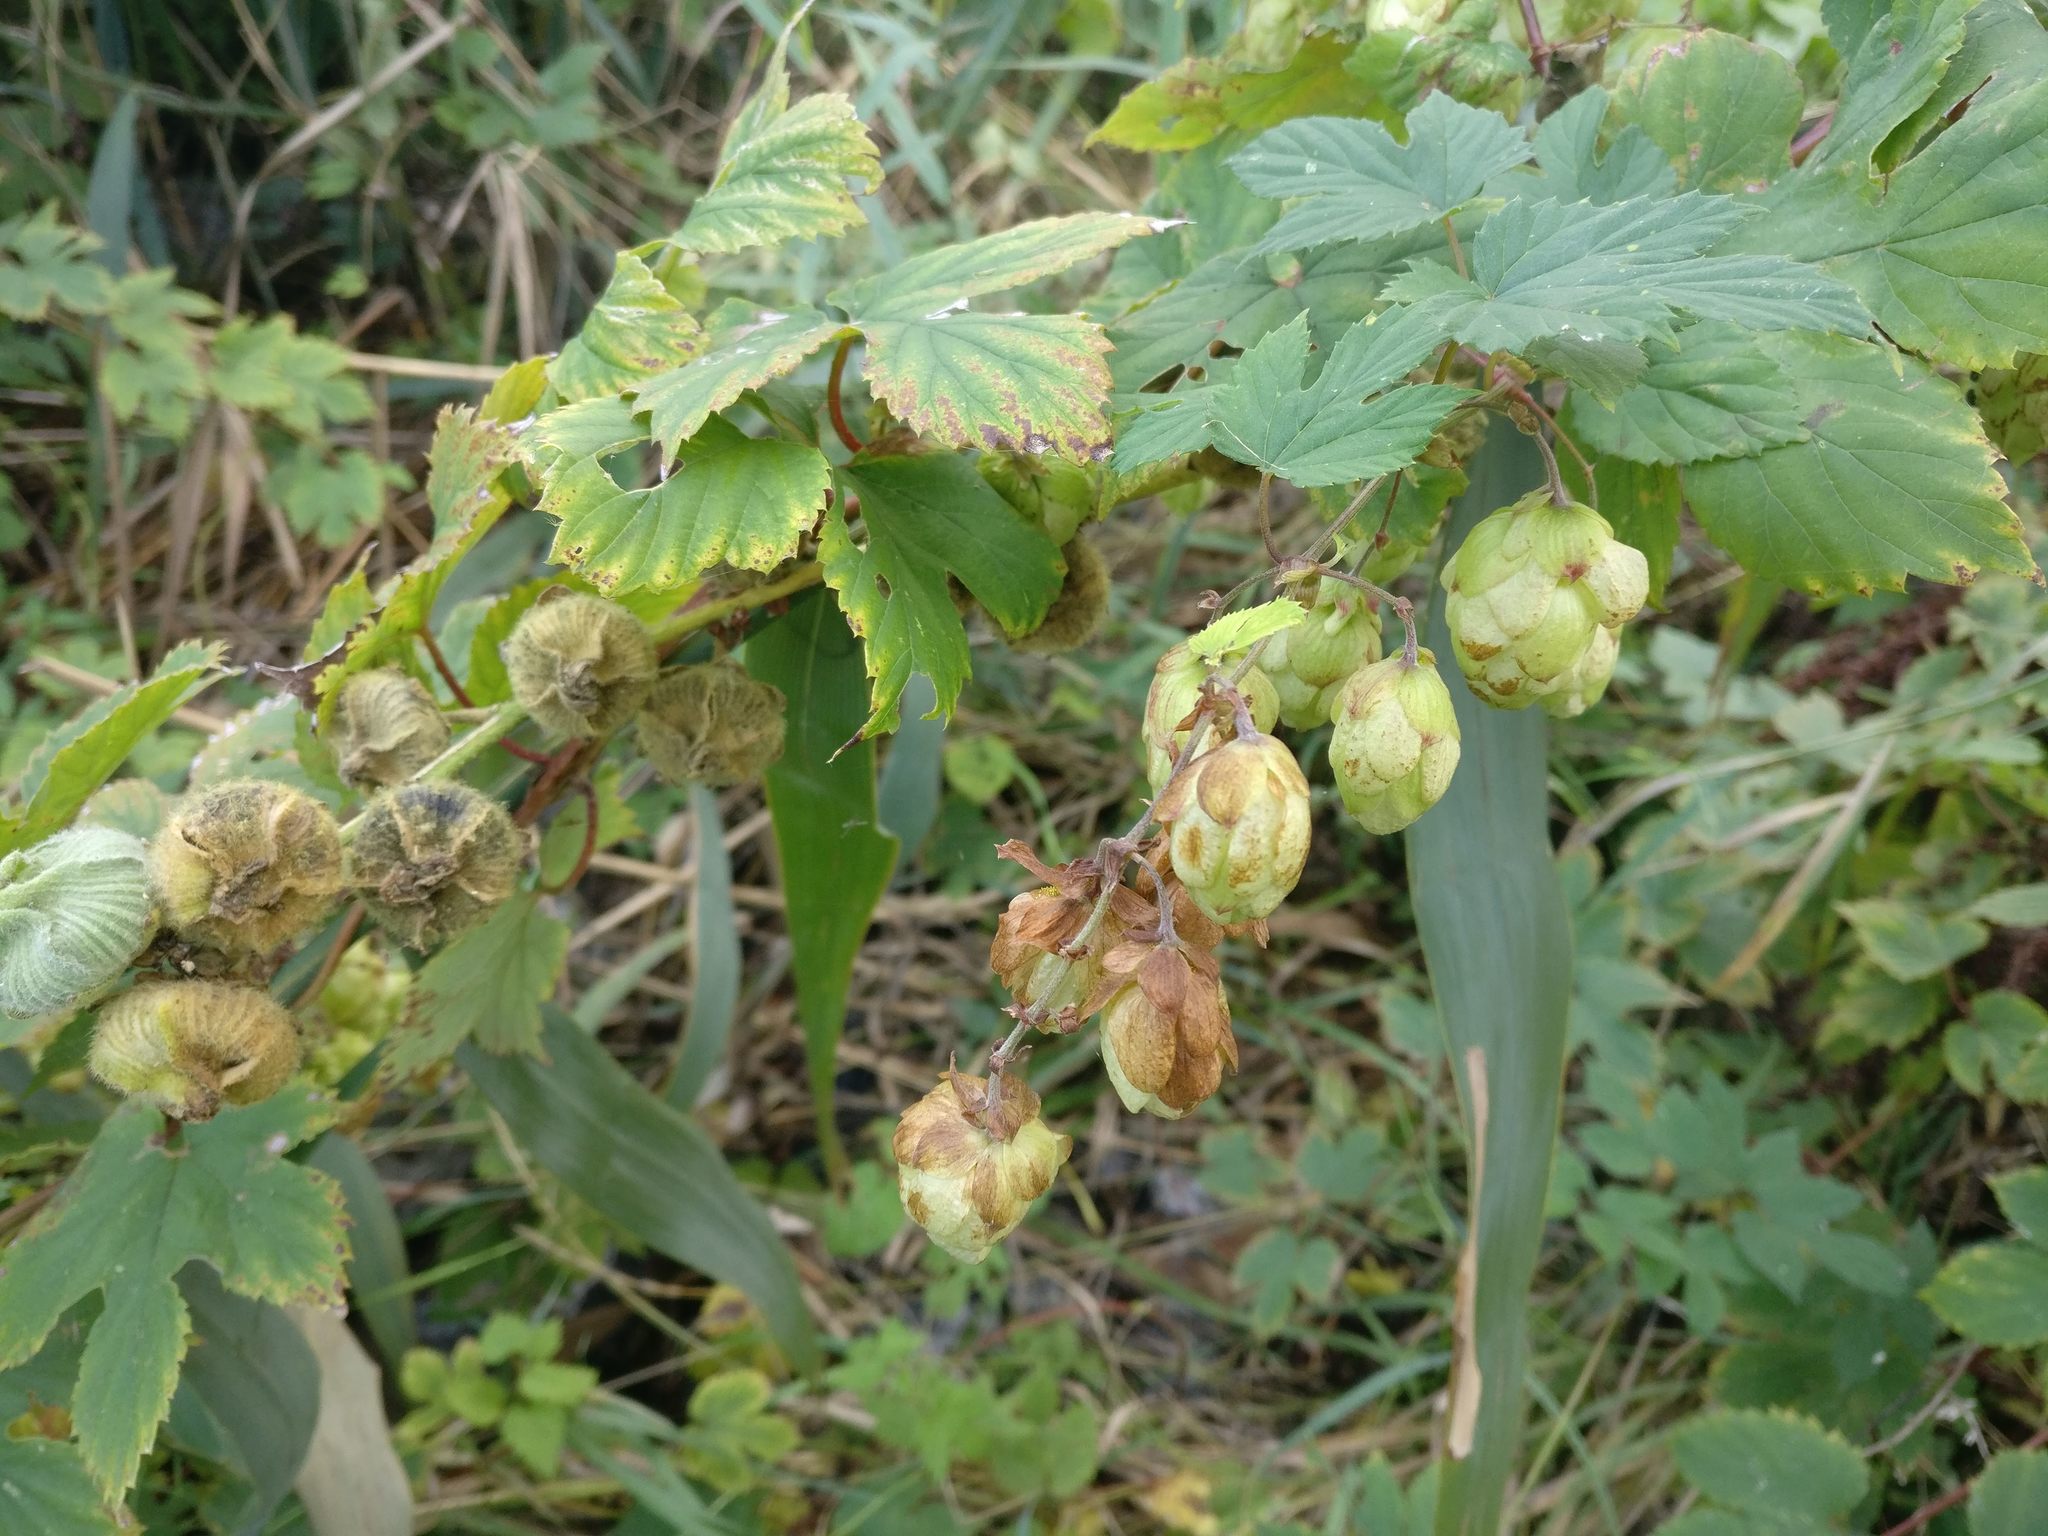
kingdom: Plantae
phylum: Tracheophyta
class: Magnoliopsida
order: Rosales
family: Cannabaceae
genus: Humulus
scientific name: Humulus lupulus
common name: Hop
